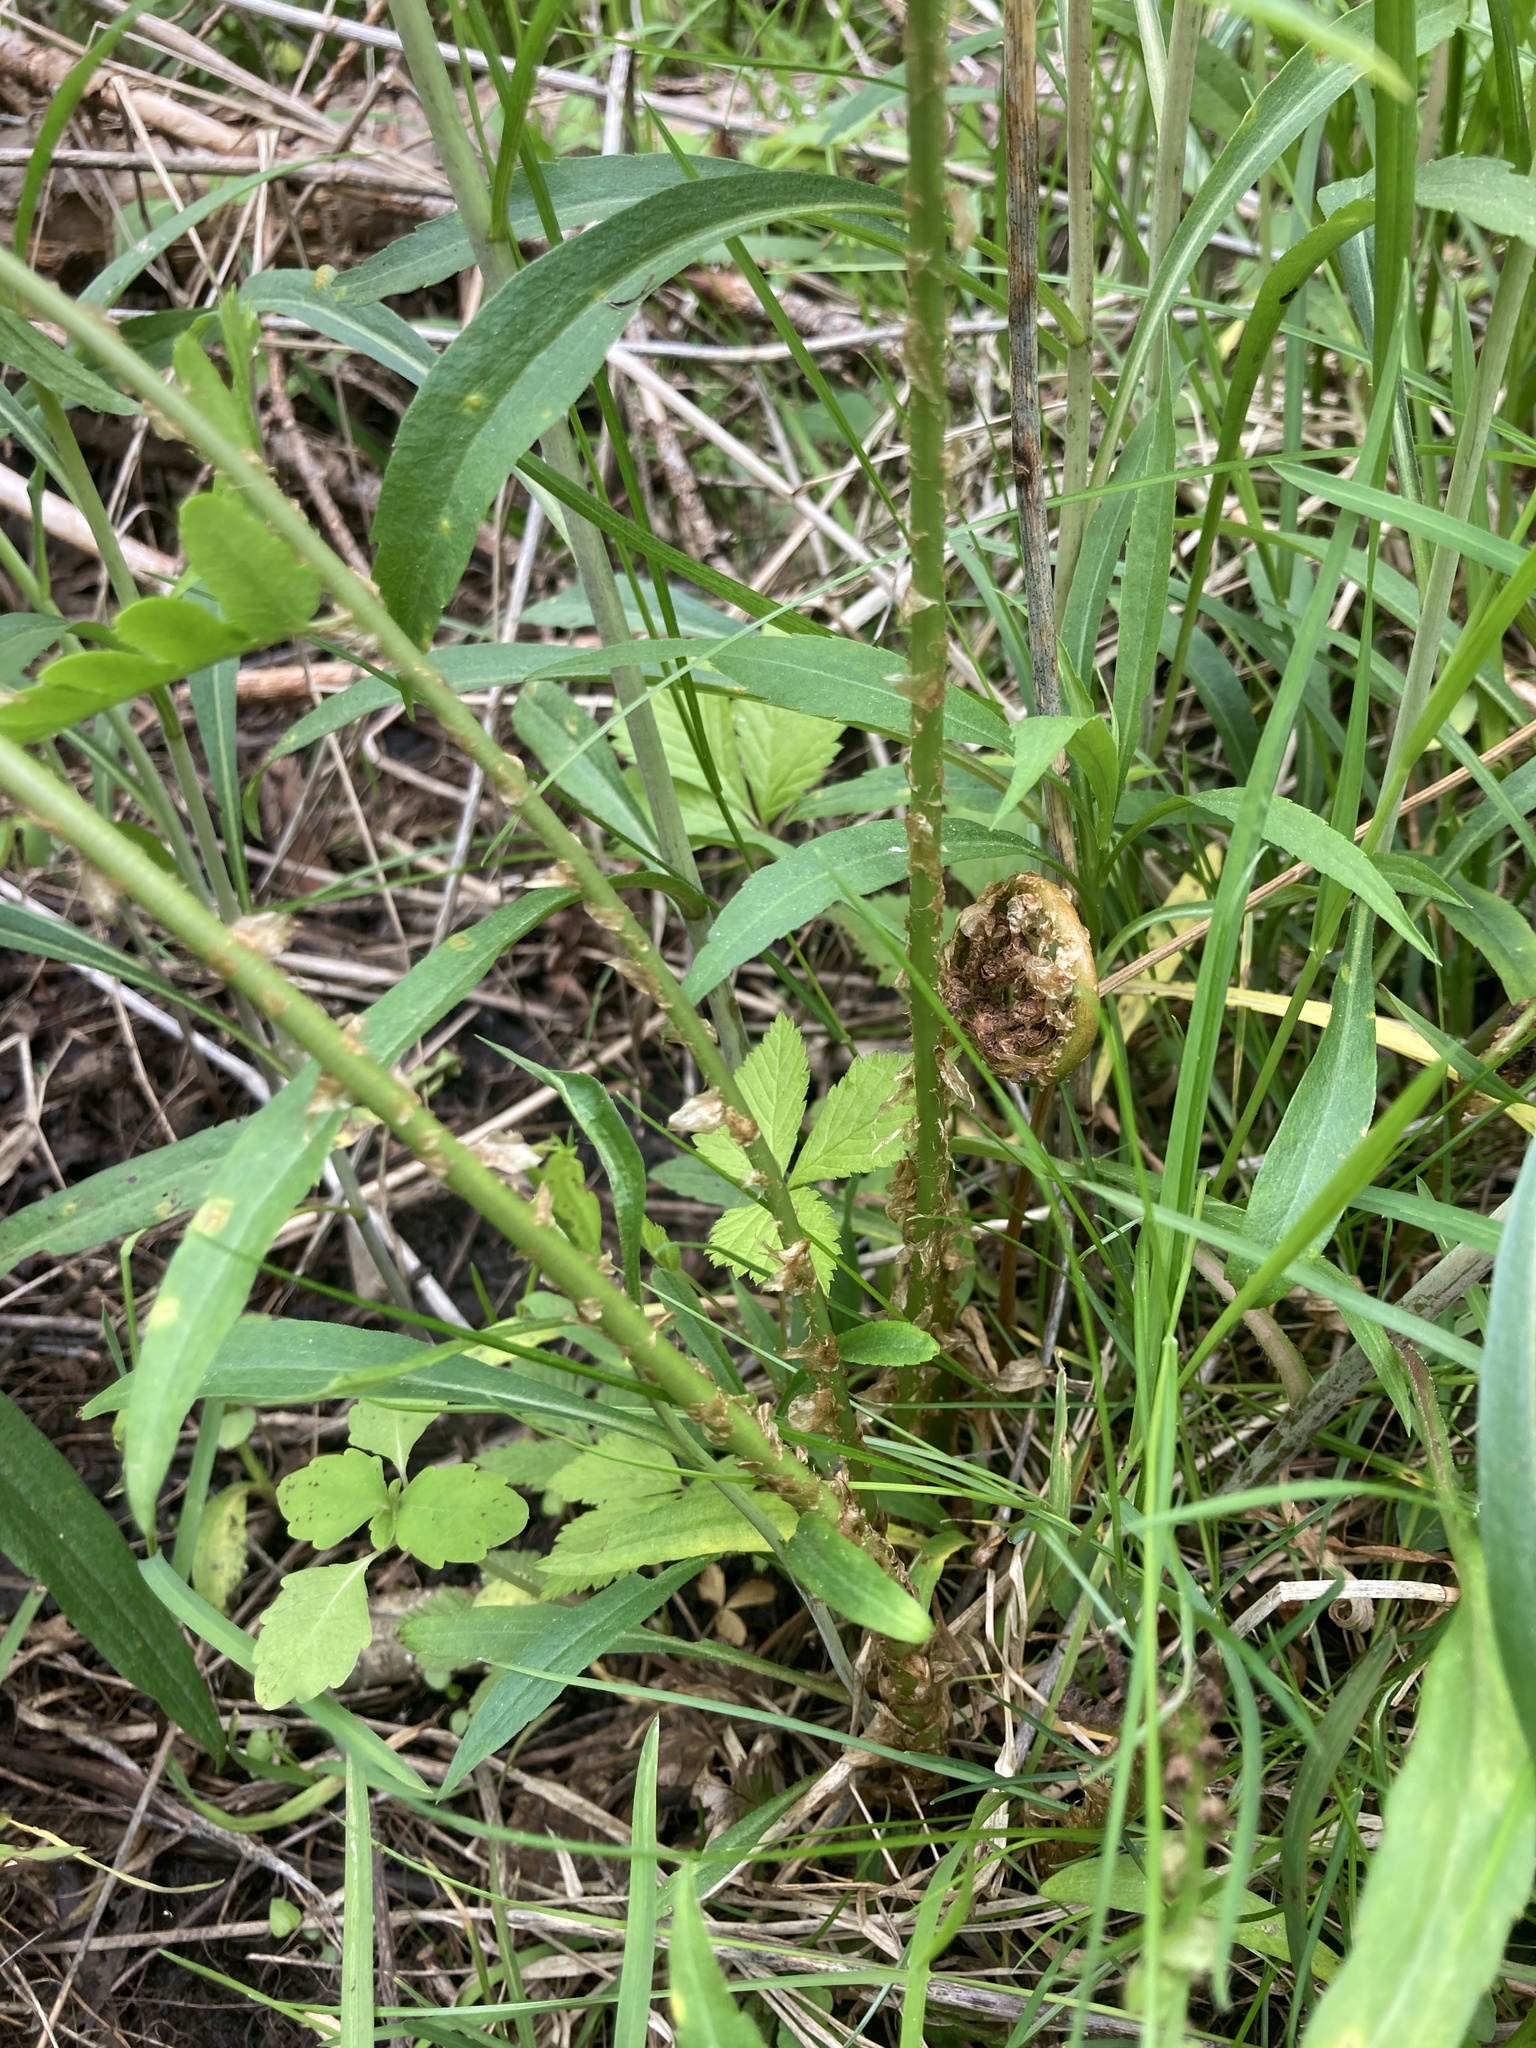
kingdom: Plantae
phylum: Tracheophyta
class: Polypodiopsida
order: Polypodiales
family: Dryopteridaceae
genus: Dryopteris
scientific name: Dryopteris cristata
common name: Crested wood fern
